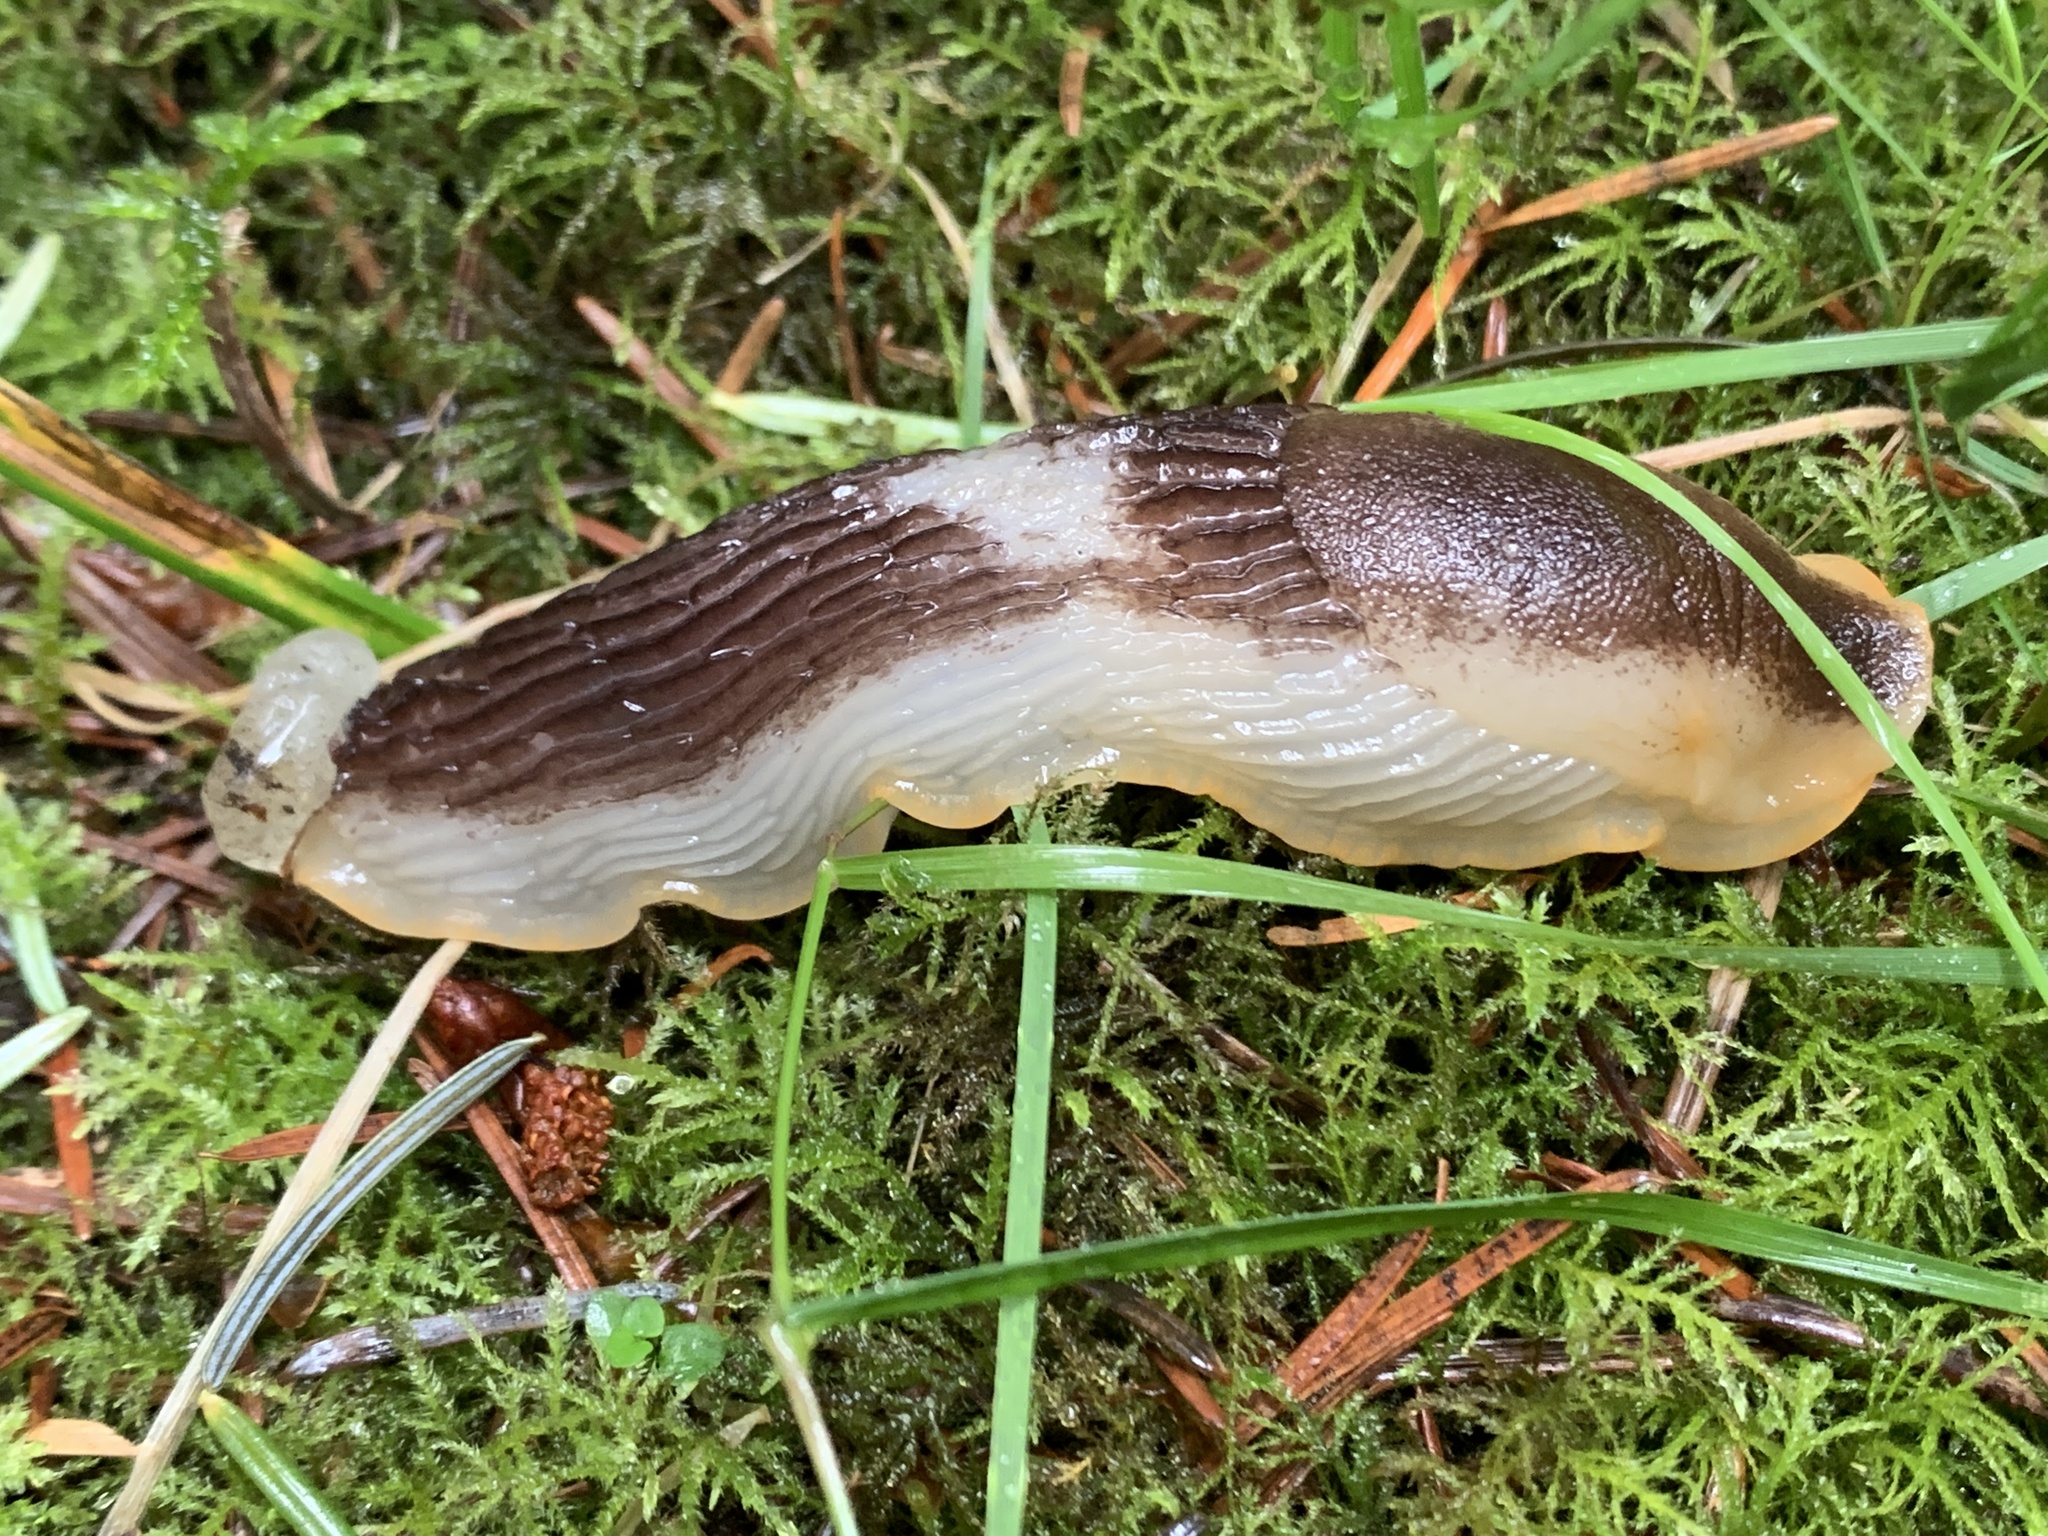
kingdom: Animalia
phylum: Mollusca
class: Gastropoda
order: Stylommatophora
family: Arionidae
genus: Arion
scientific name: Arion
